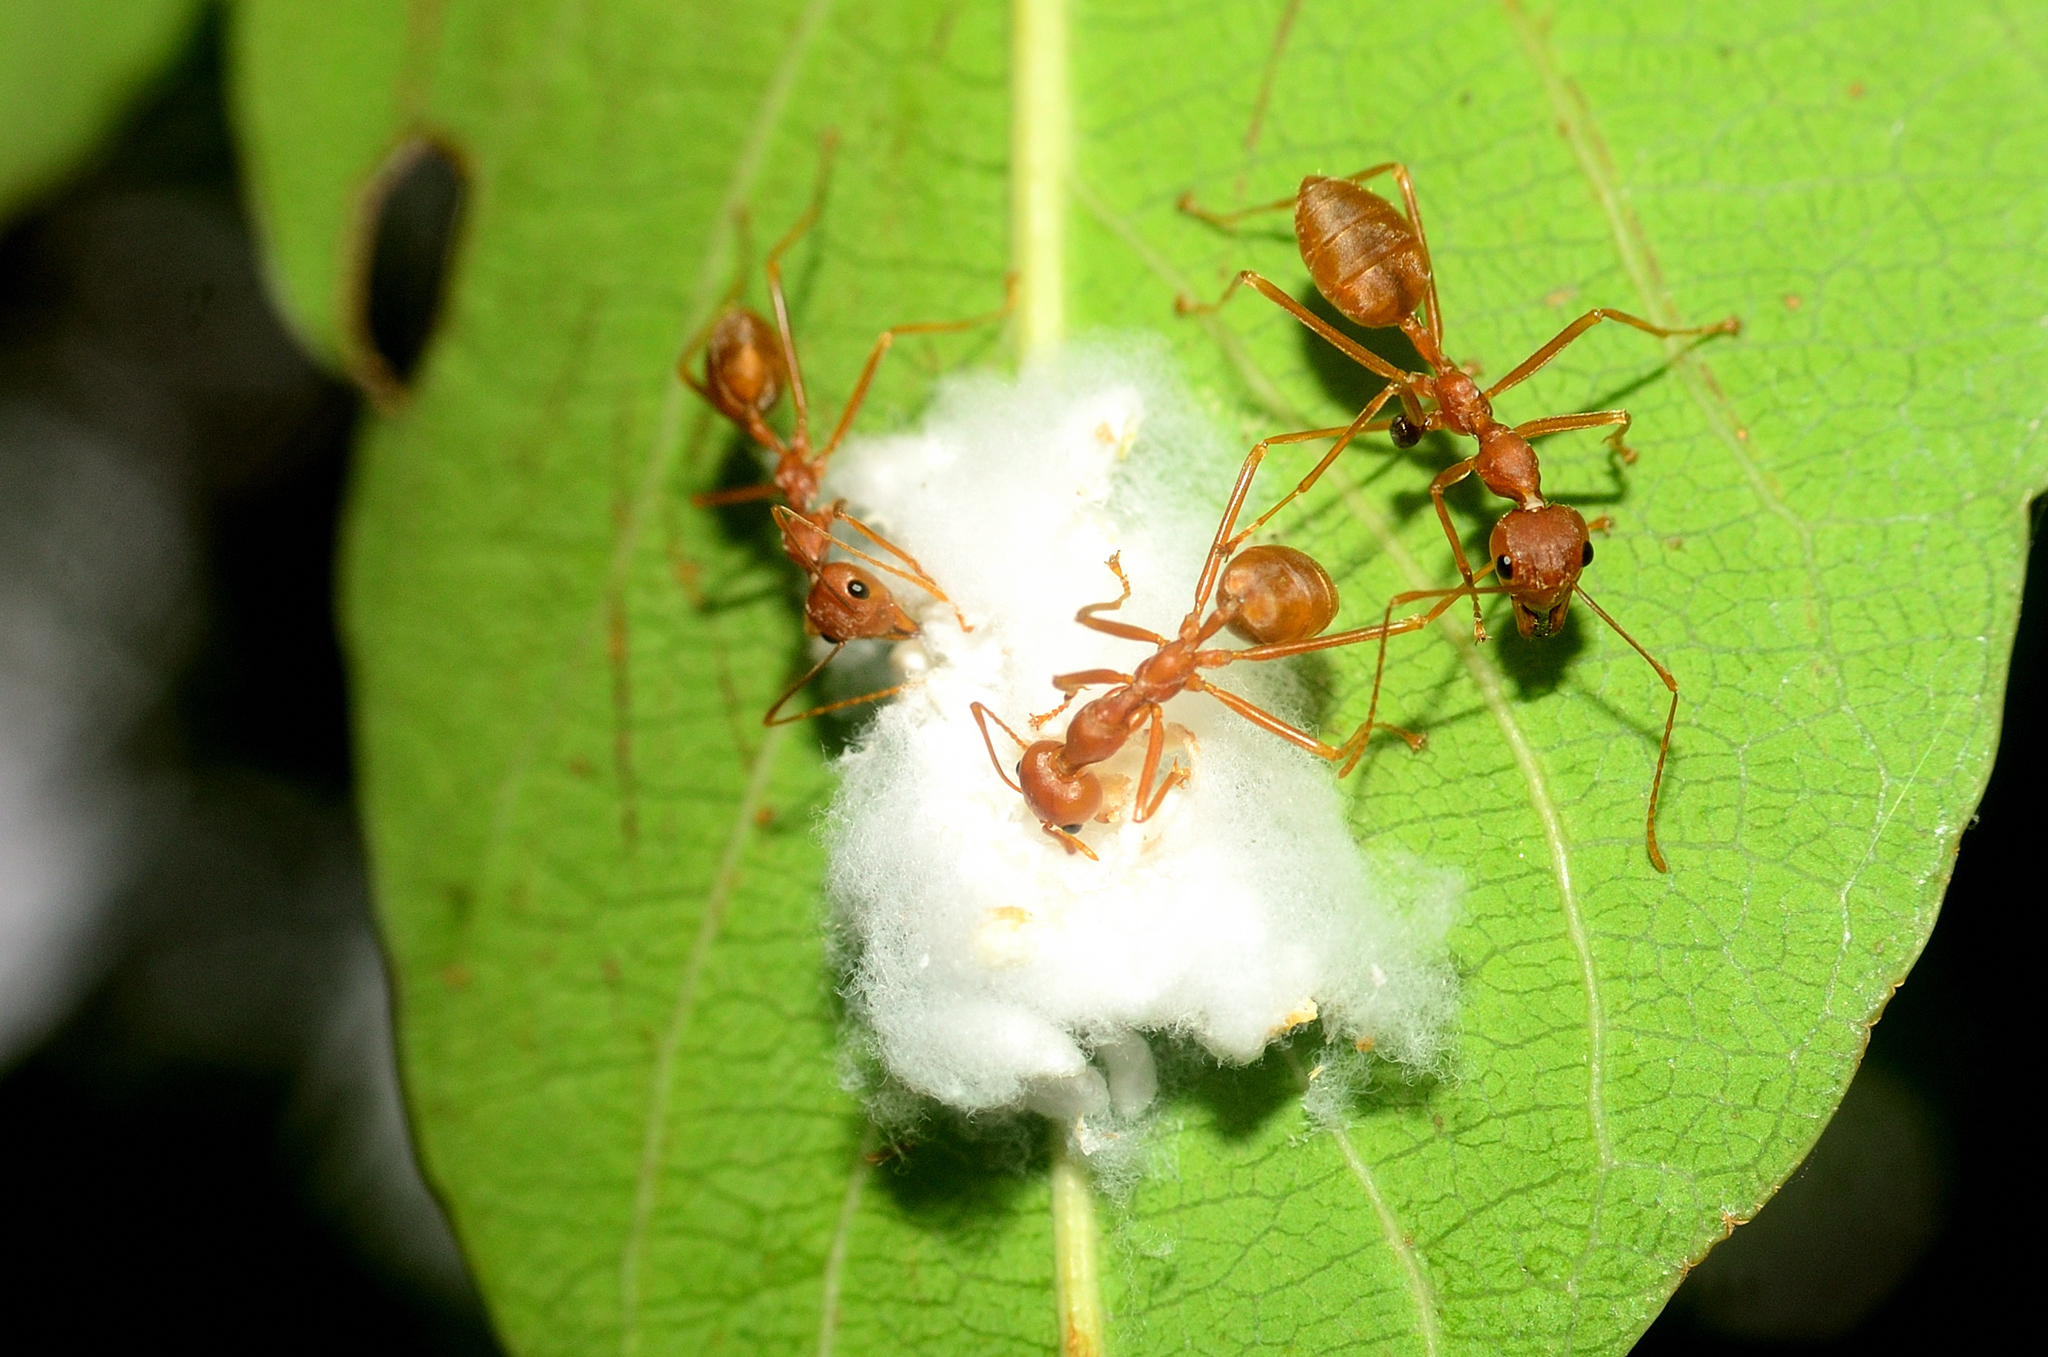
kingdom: Animalia
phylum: Arthropoda
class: Insecta
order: Hymenoptera
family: Formicidae
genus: Oecophylla
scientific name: Oecophylla smaragdina
